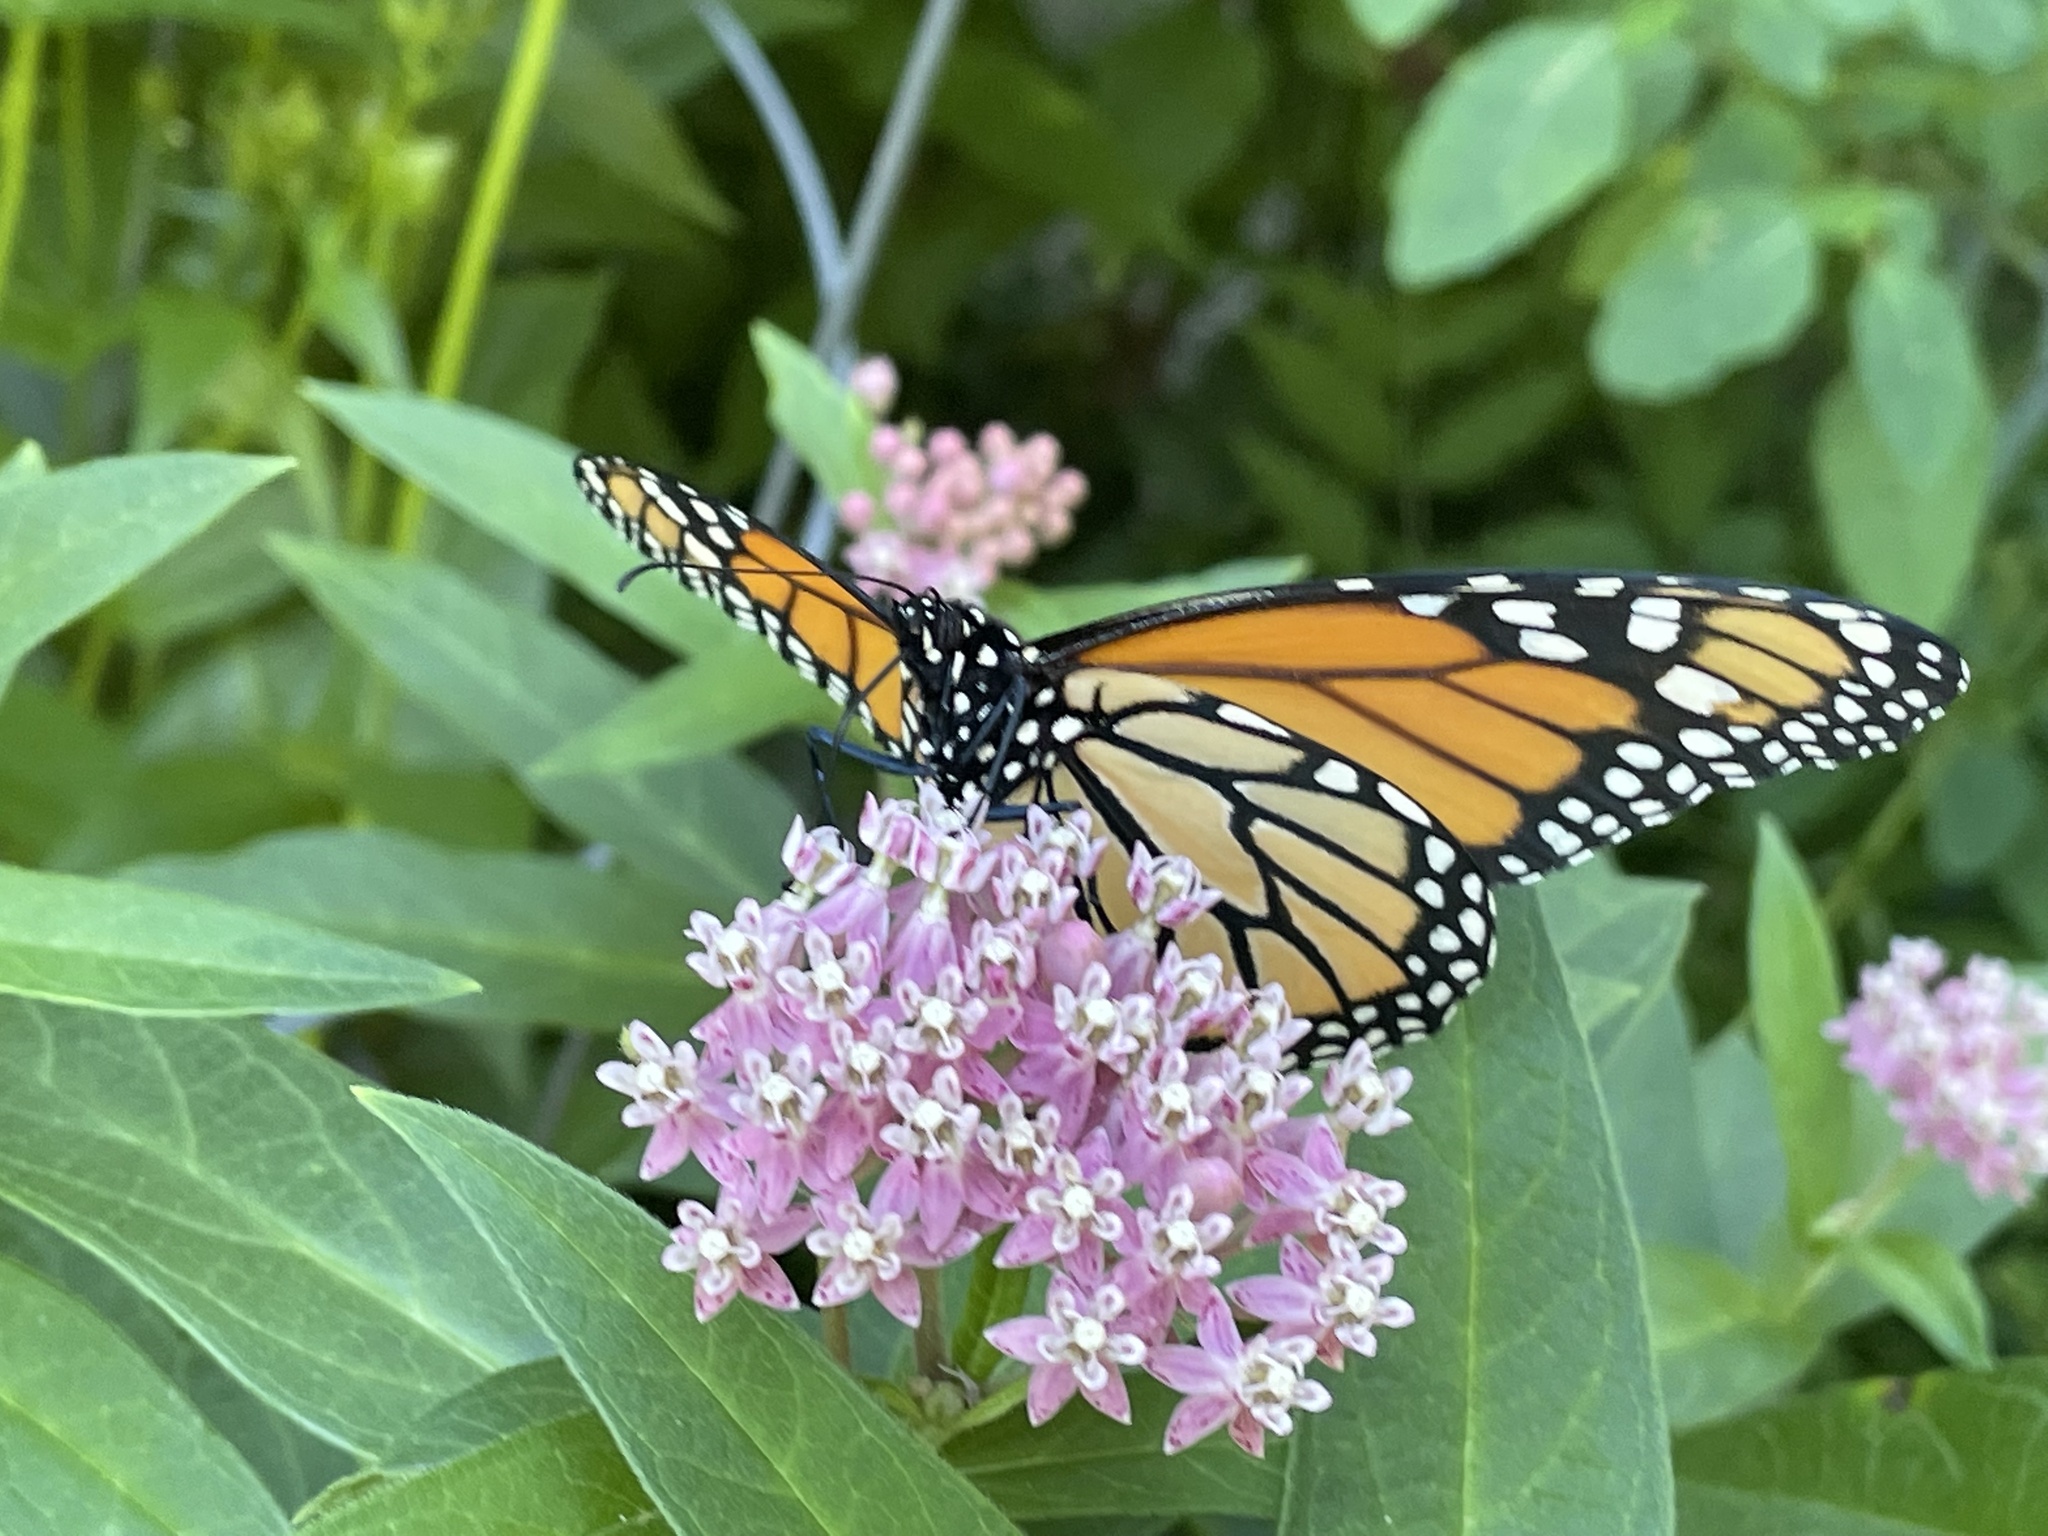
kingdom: Animalia
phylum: Arthropoda
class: Insecta
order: Lepidoptera
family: Nymphalidae
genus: Danaus
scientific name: Danaus plexippus
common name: Monarch
